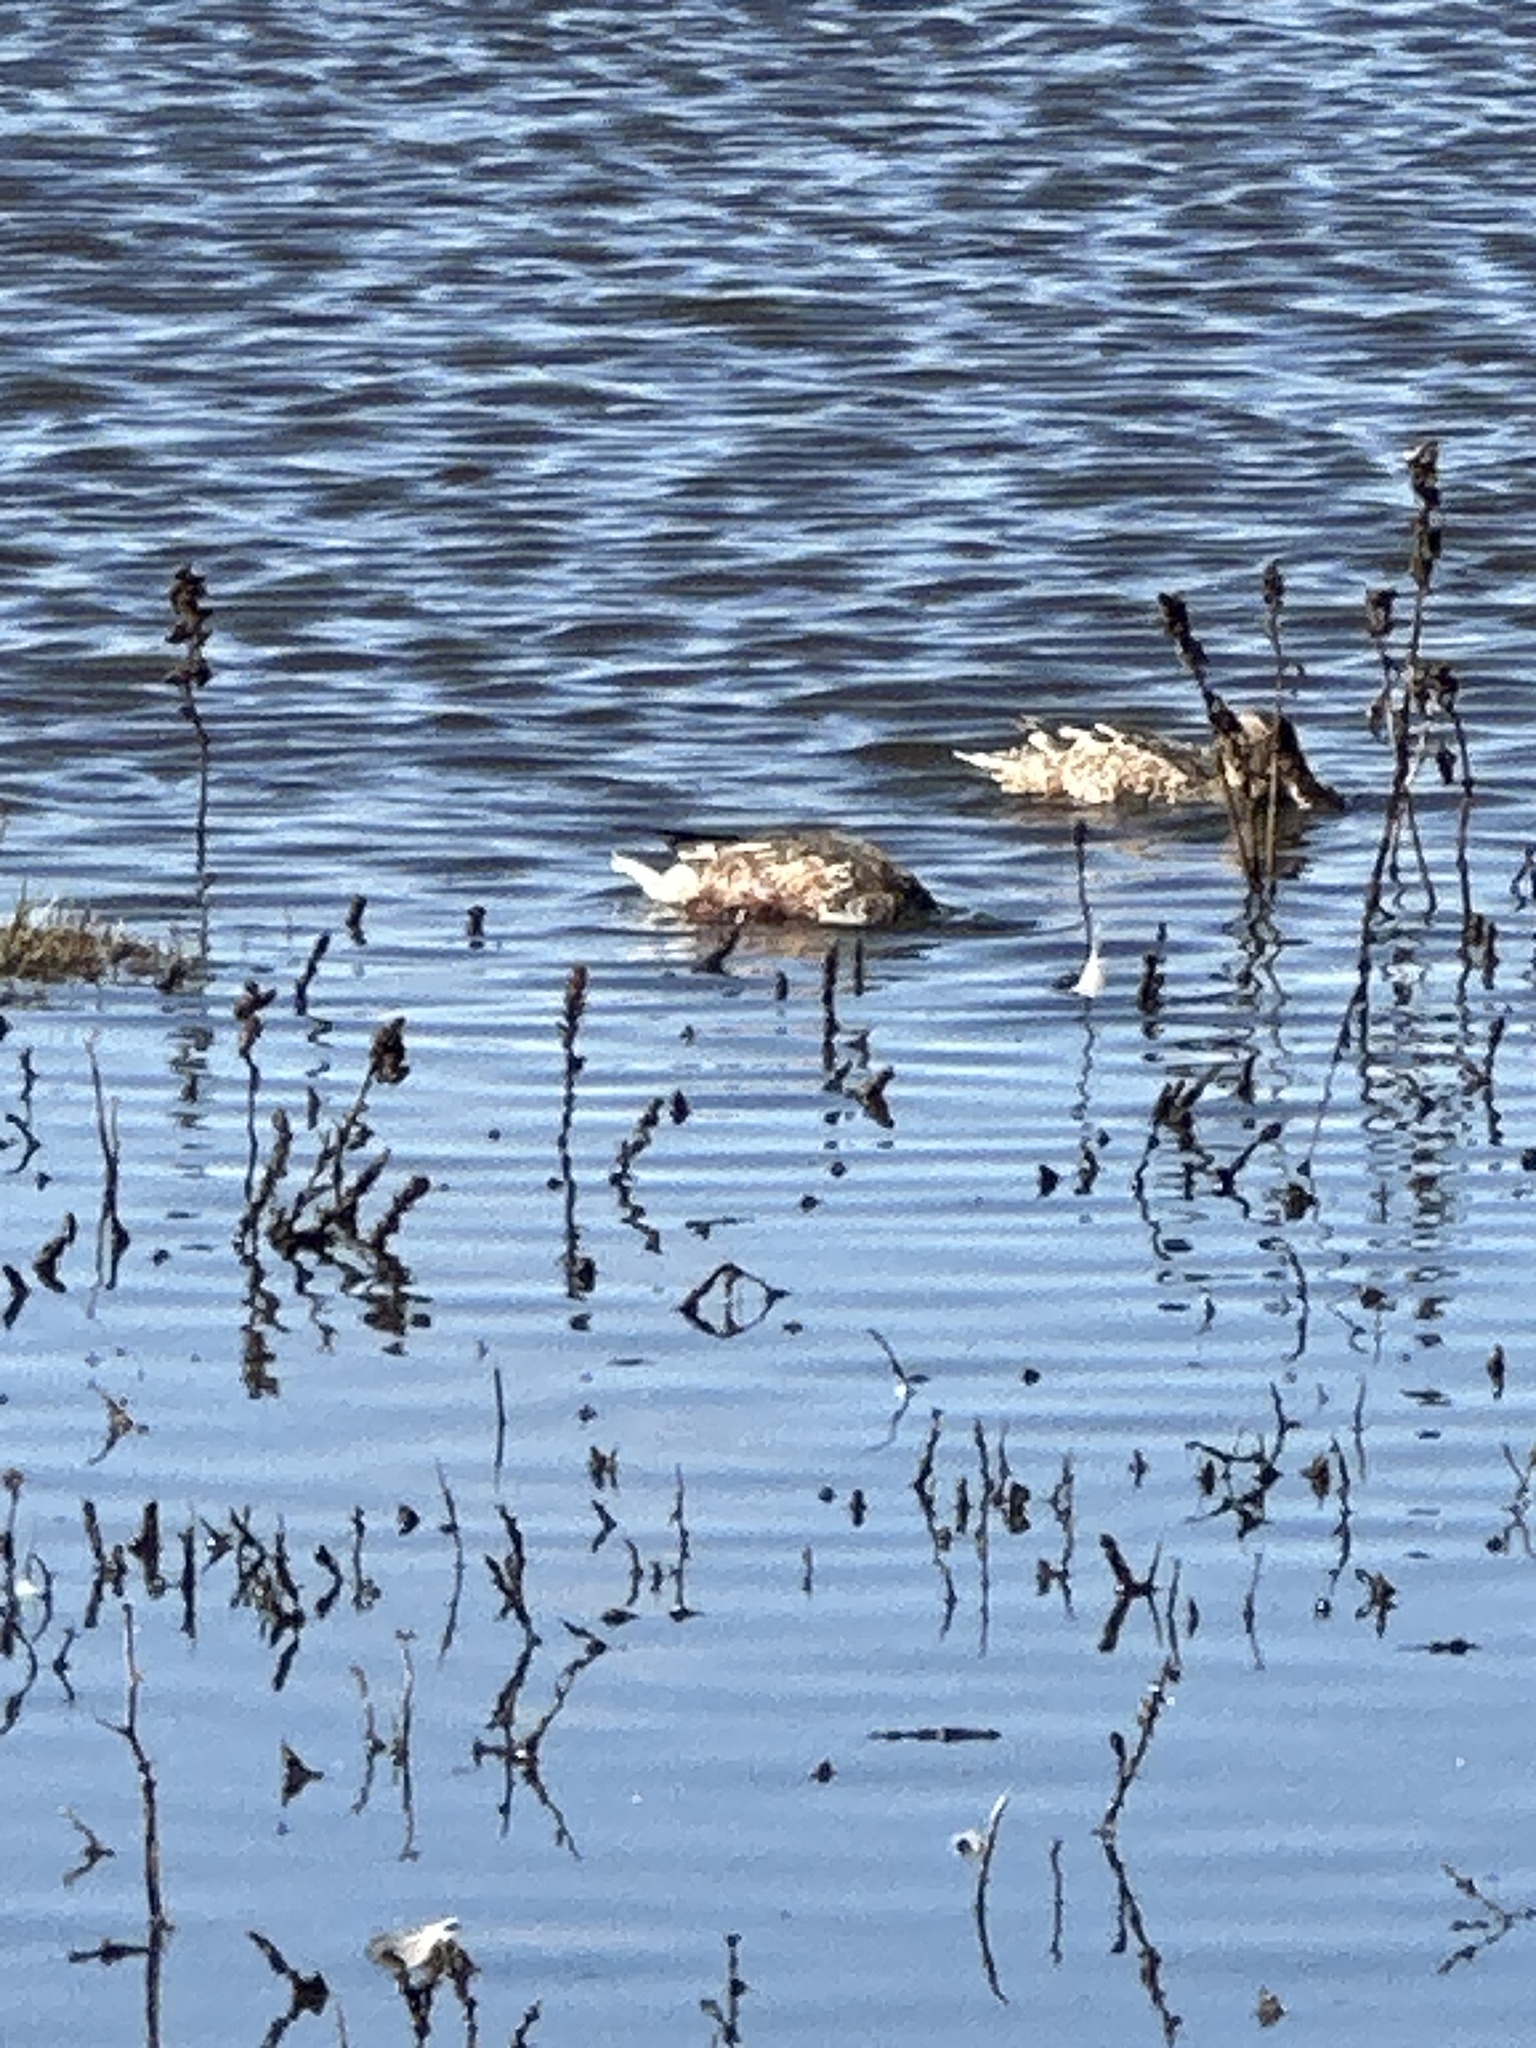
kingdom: Animalia
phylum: Chordata
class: Aves
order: Anseriformes
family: Anatidae
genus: Spatula
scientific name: Spatula clypeata
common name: Northern shoveler
